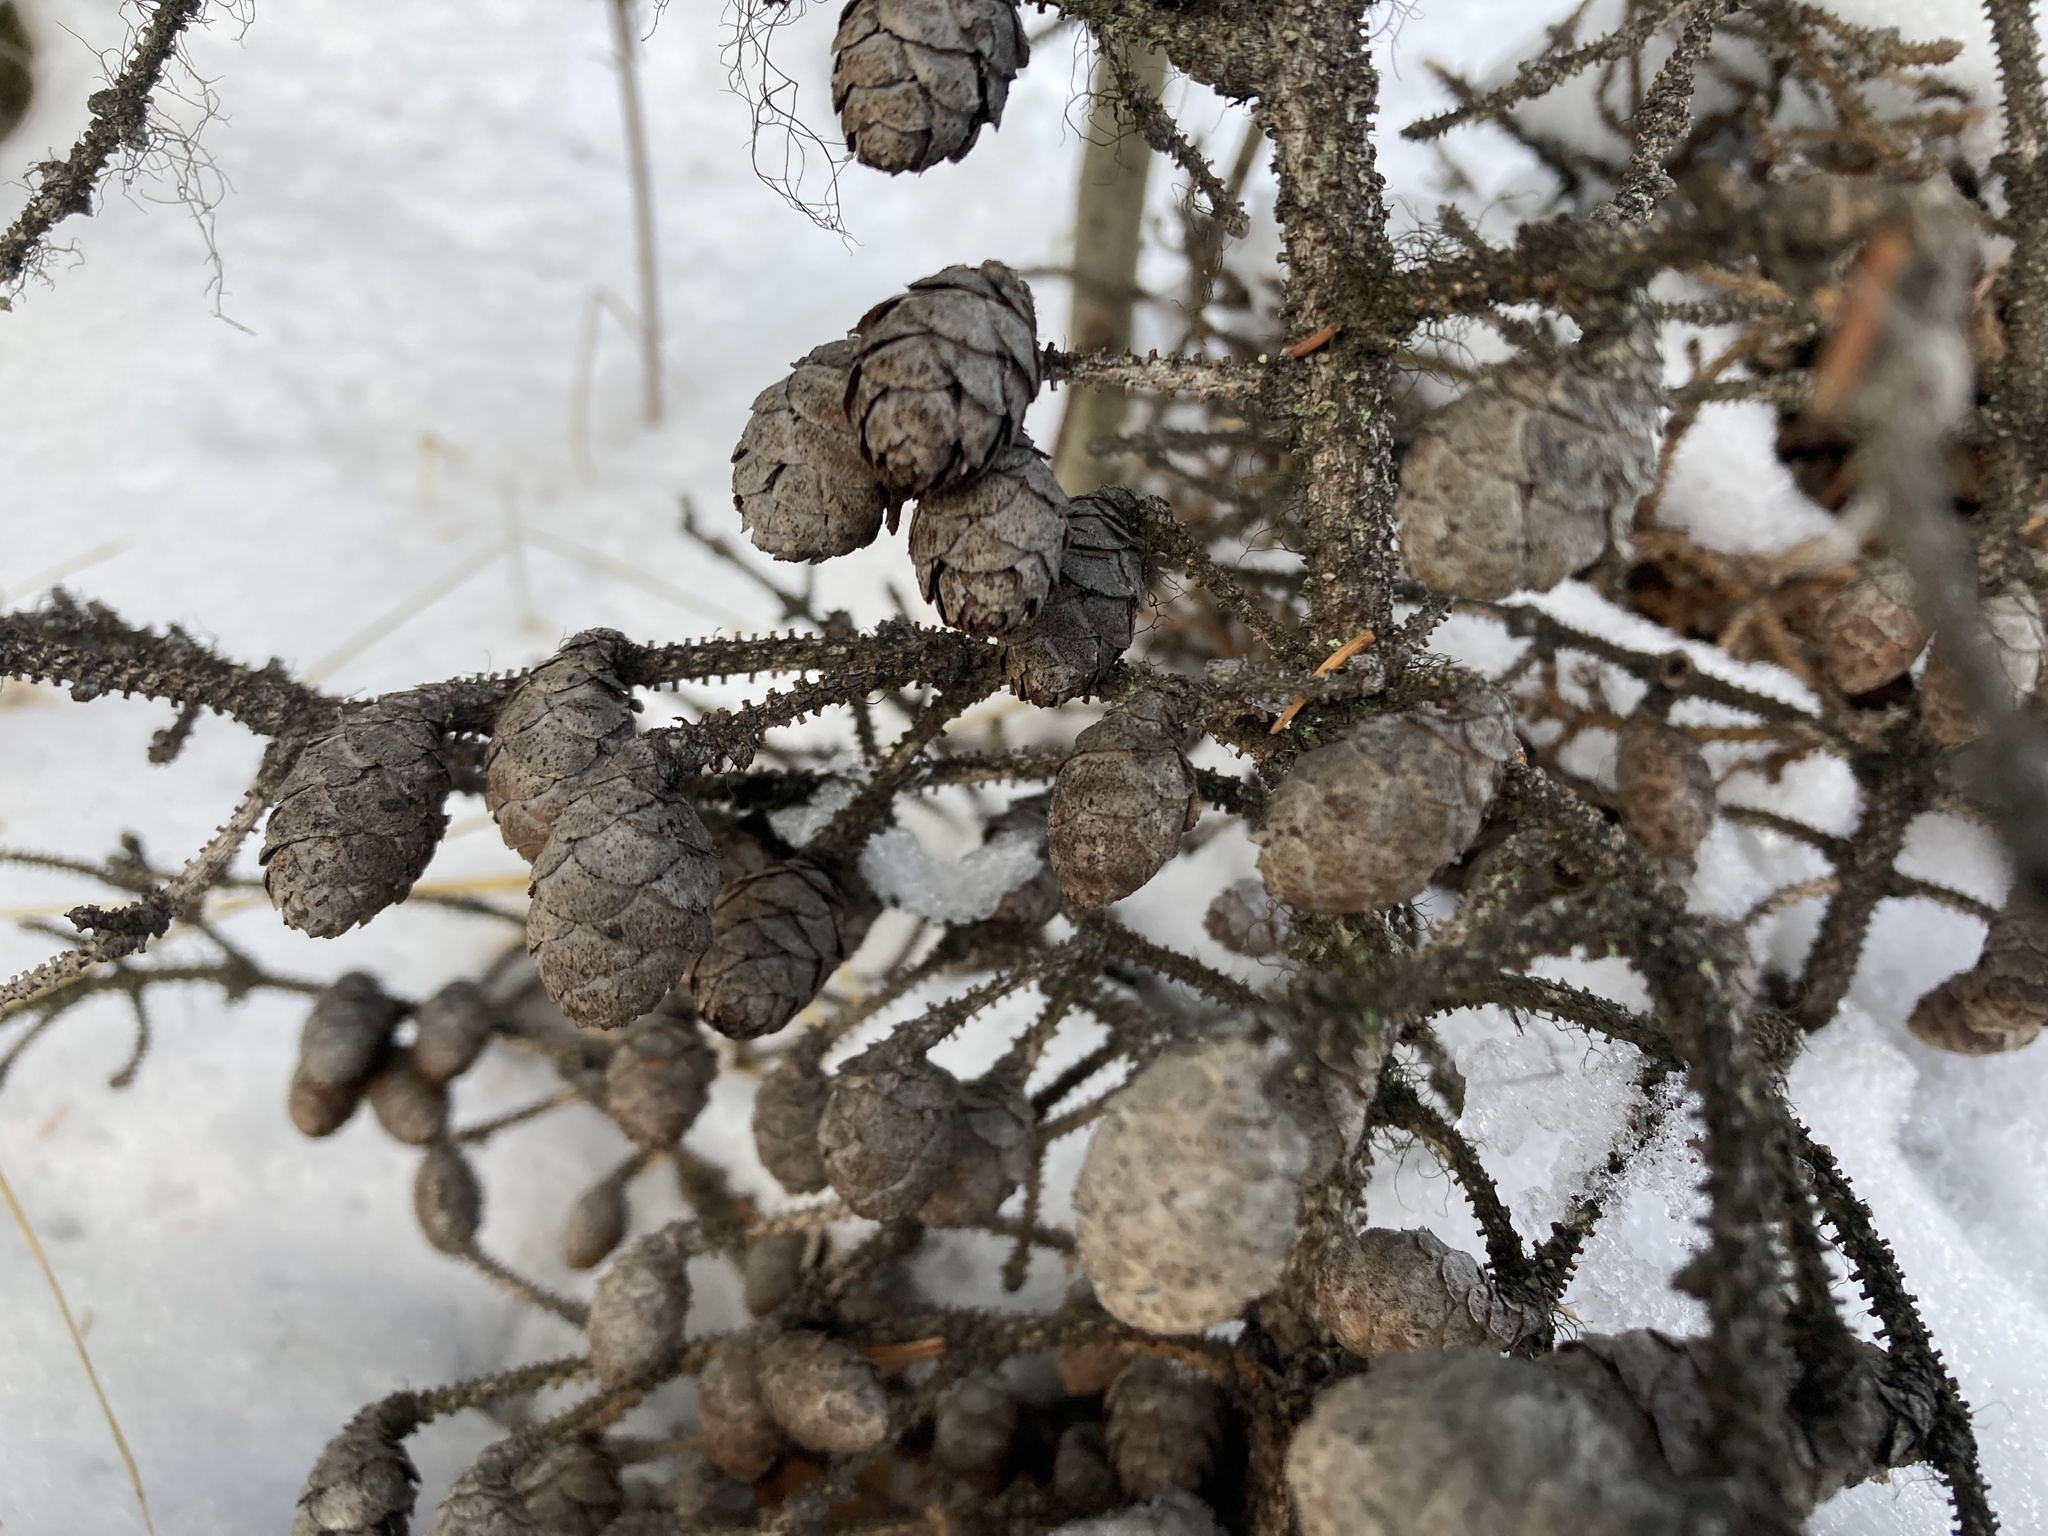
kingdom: Plantae
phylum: Tracheophyta
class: Pinopsida
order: Pinales
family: Pinaceae
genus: Picea
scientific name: Picea mariana
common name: Black spruce
